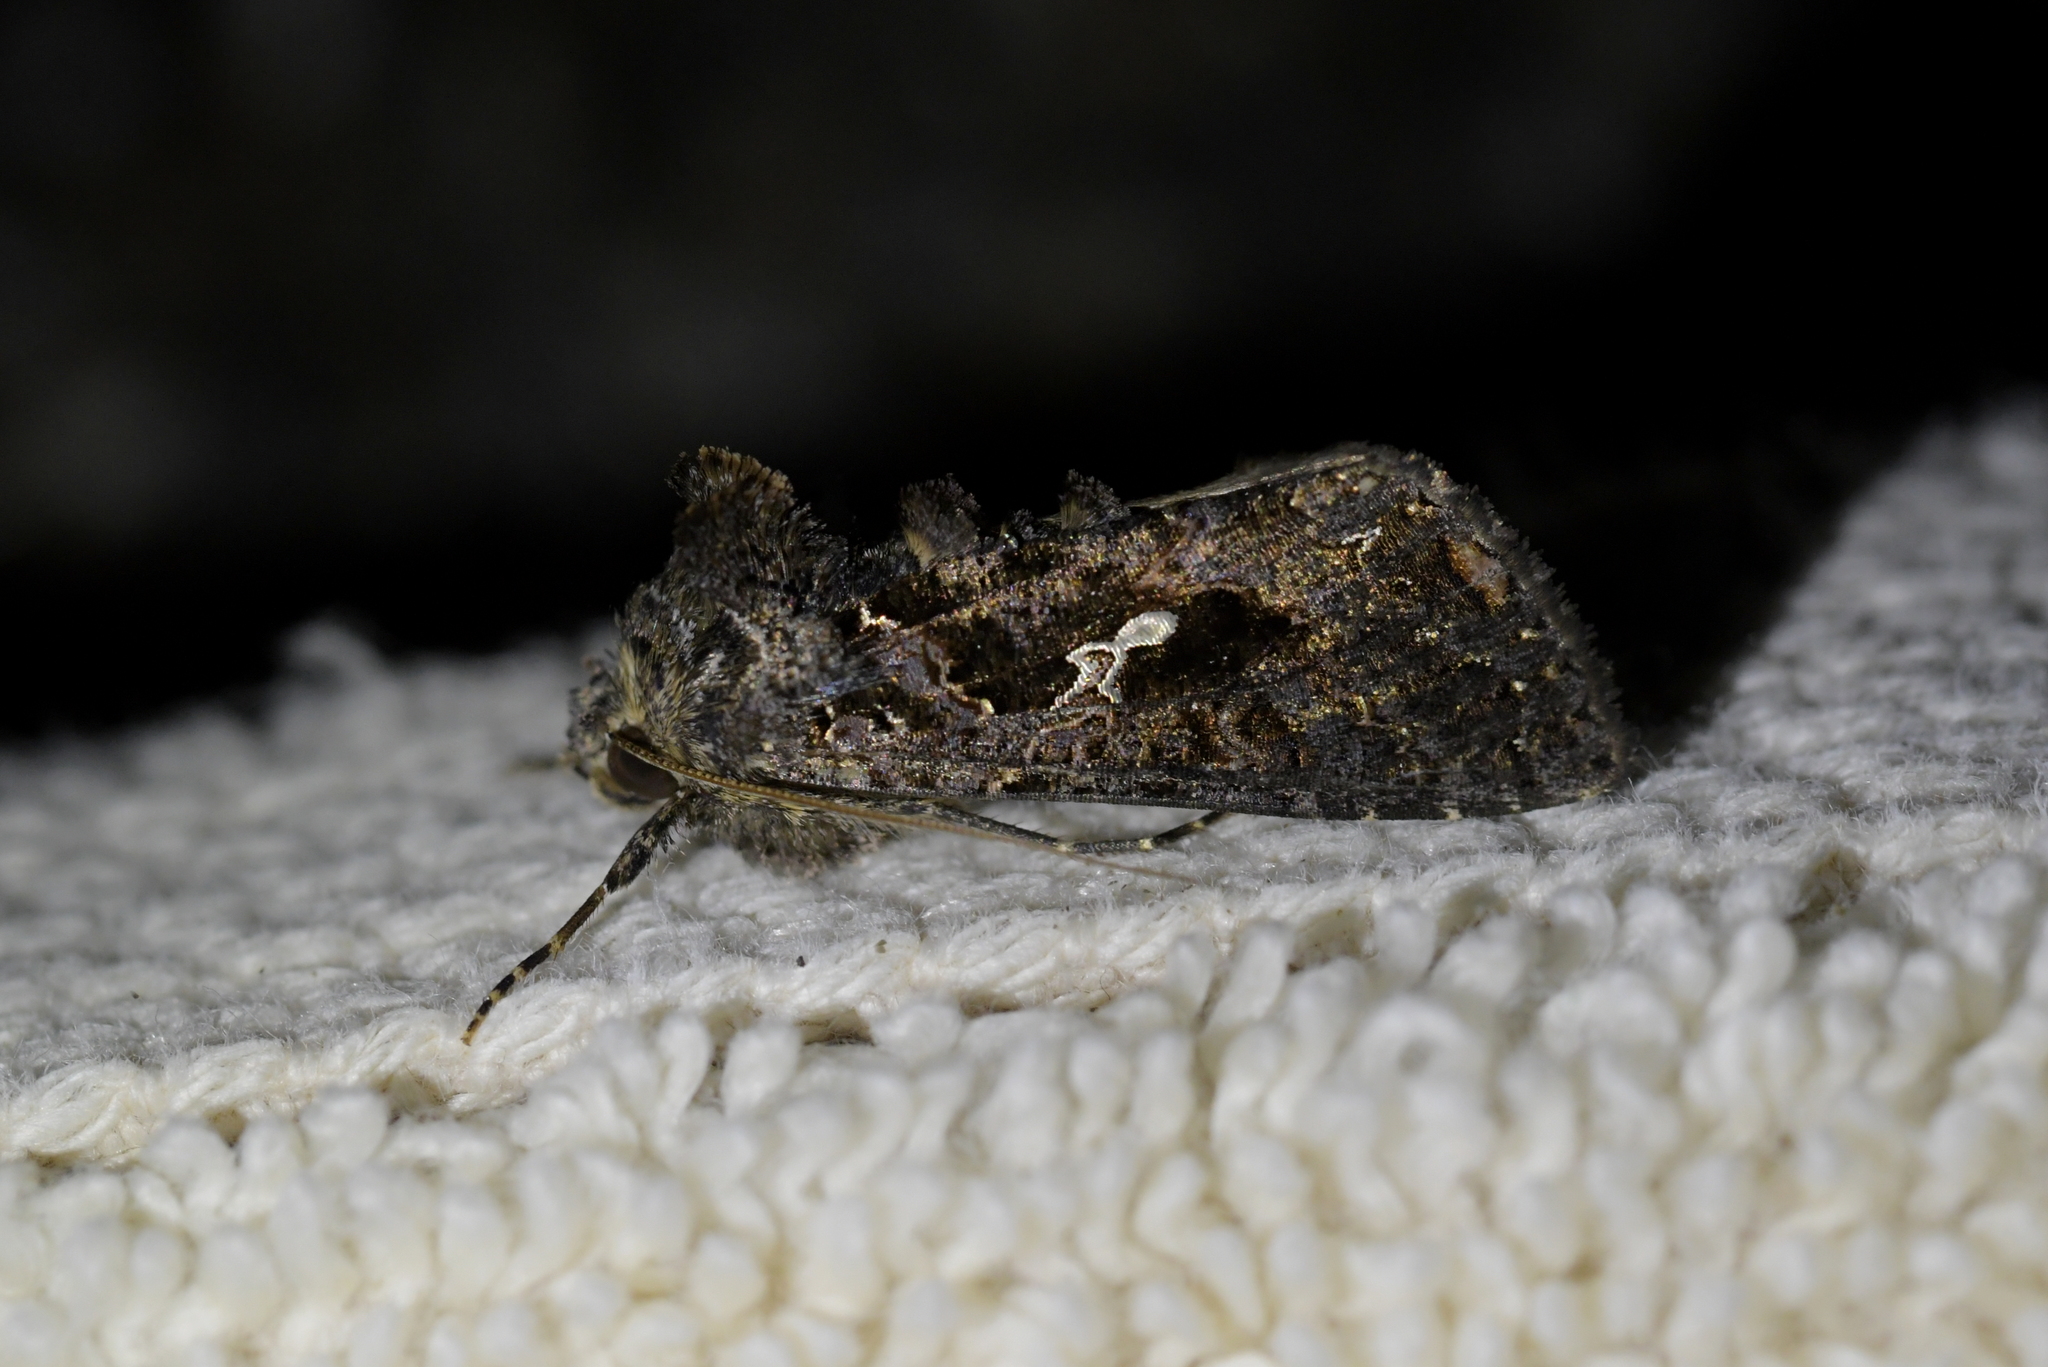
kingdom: Animalia
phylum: Arthropoda
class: Insecta
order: Lepidoptera
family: Noctuidae
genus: Ctenoplusia
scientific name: Ctenoplusia limbirena
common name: Scar bank gem
